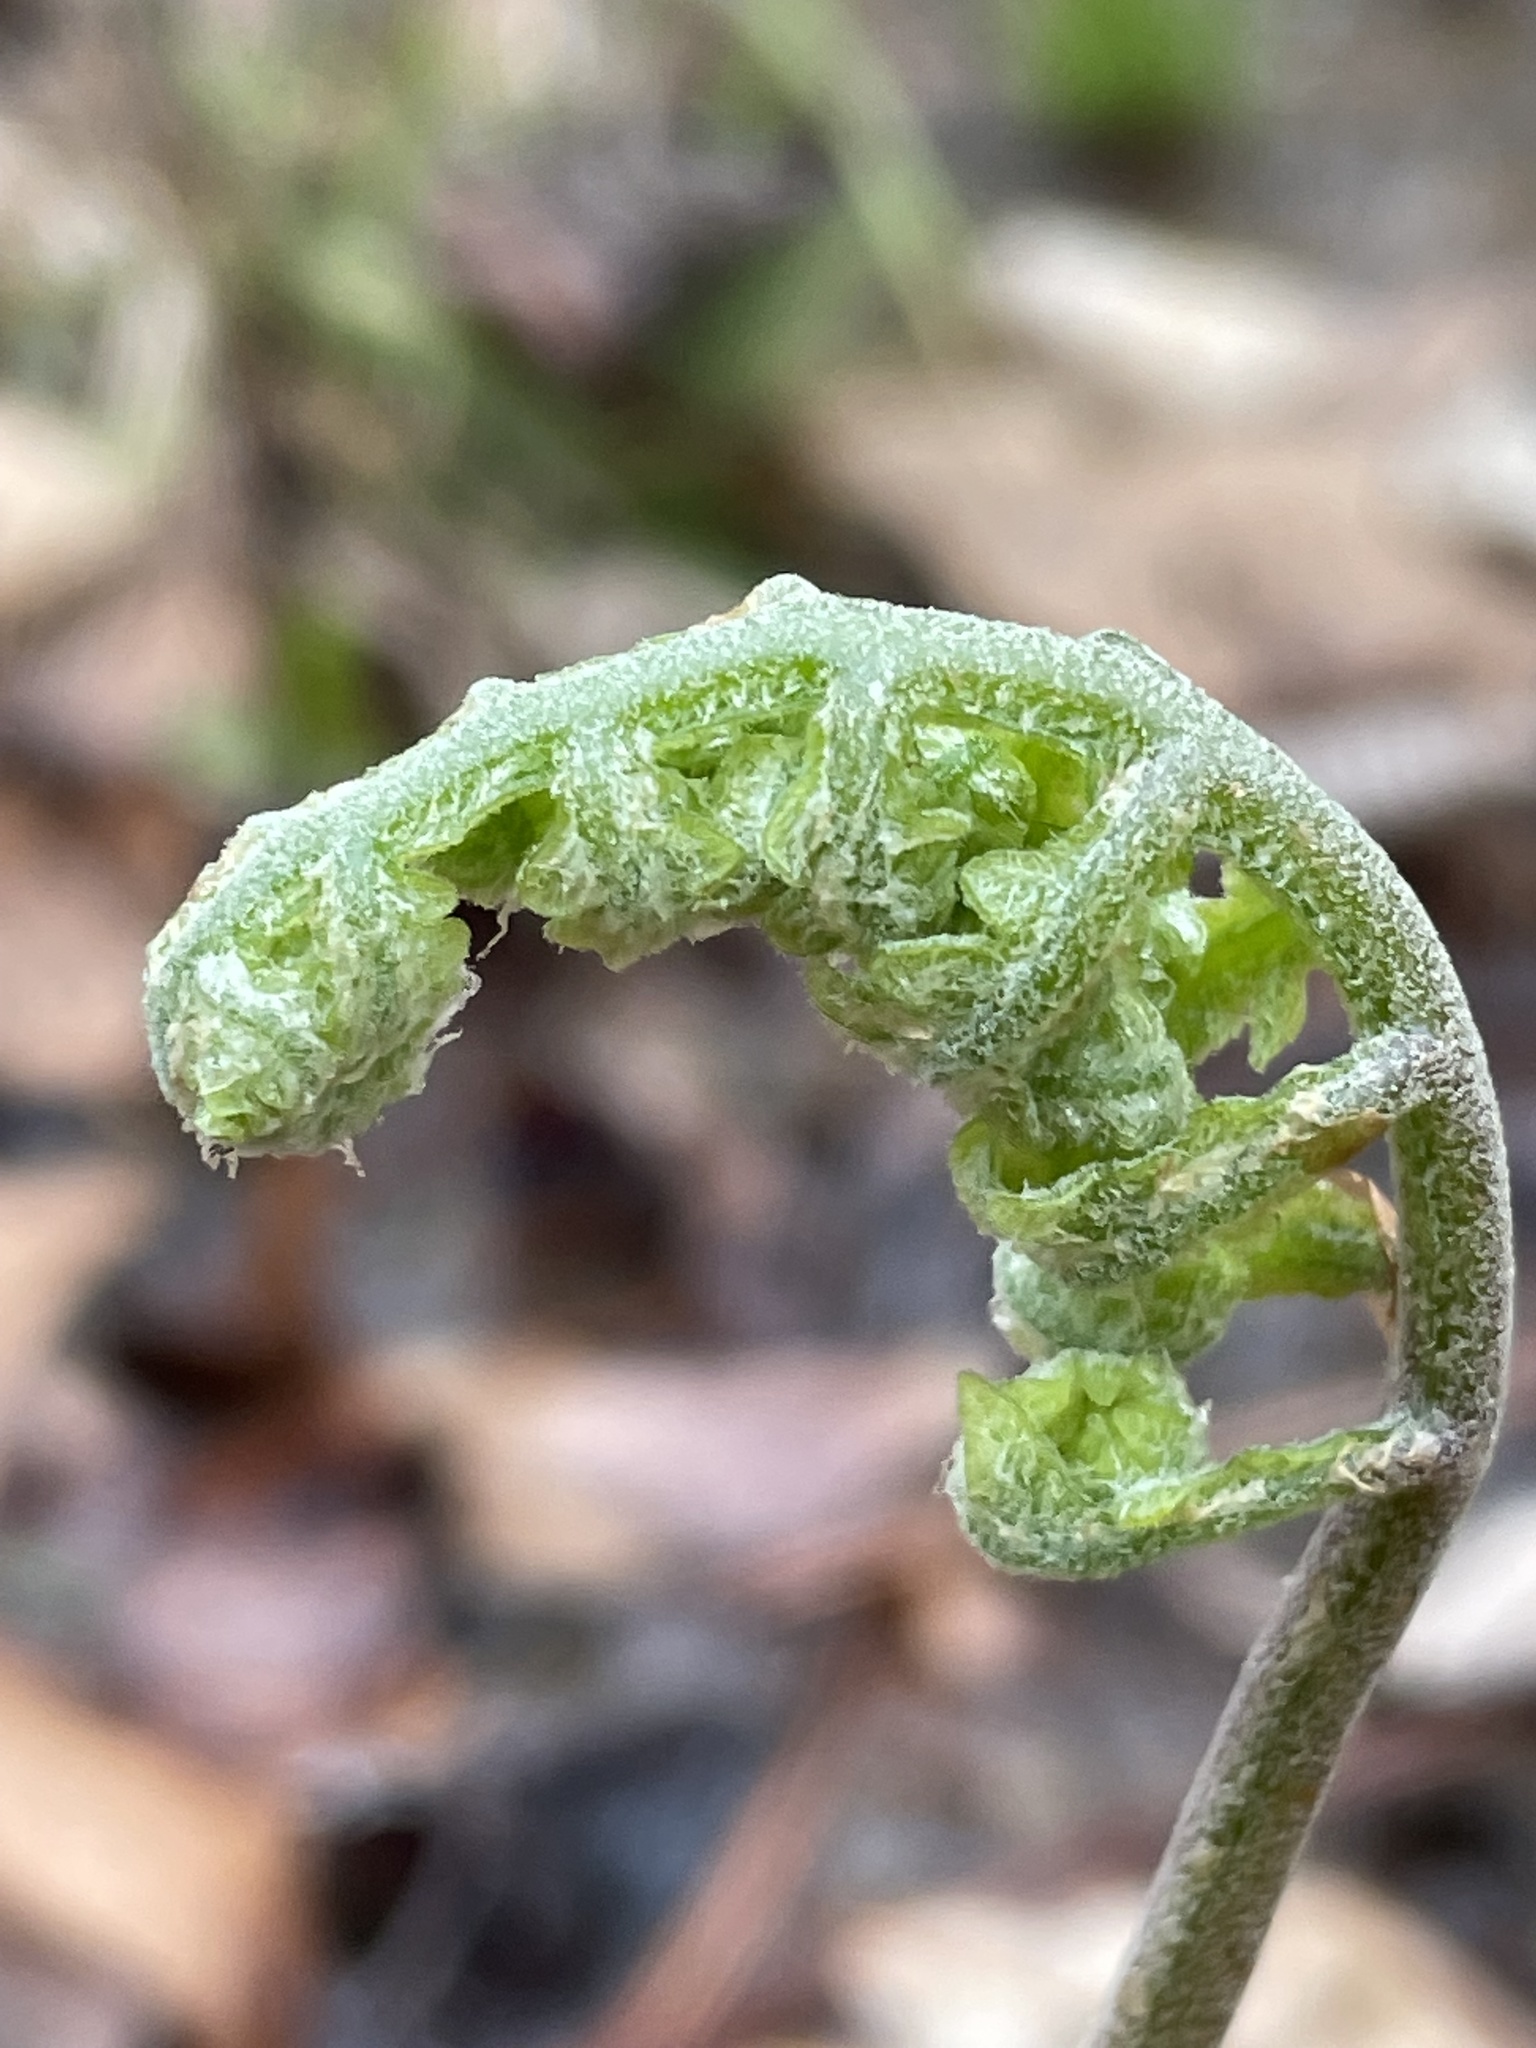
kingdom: Plantae
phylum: Tracheophyta
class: Polypodiopsida
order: Polypodiales
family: Onocleaceae
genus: Onoclea
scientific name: Onoclea sensibilis
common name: Sensitive fern
